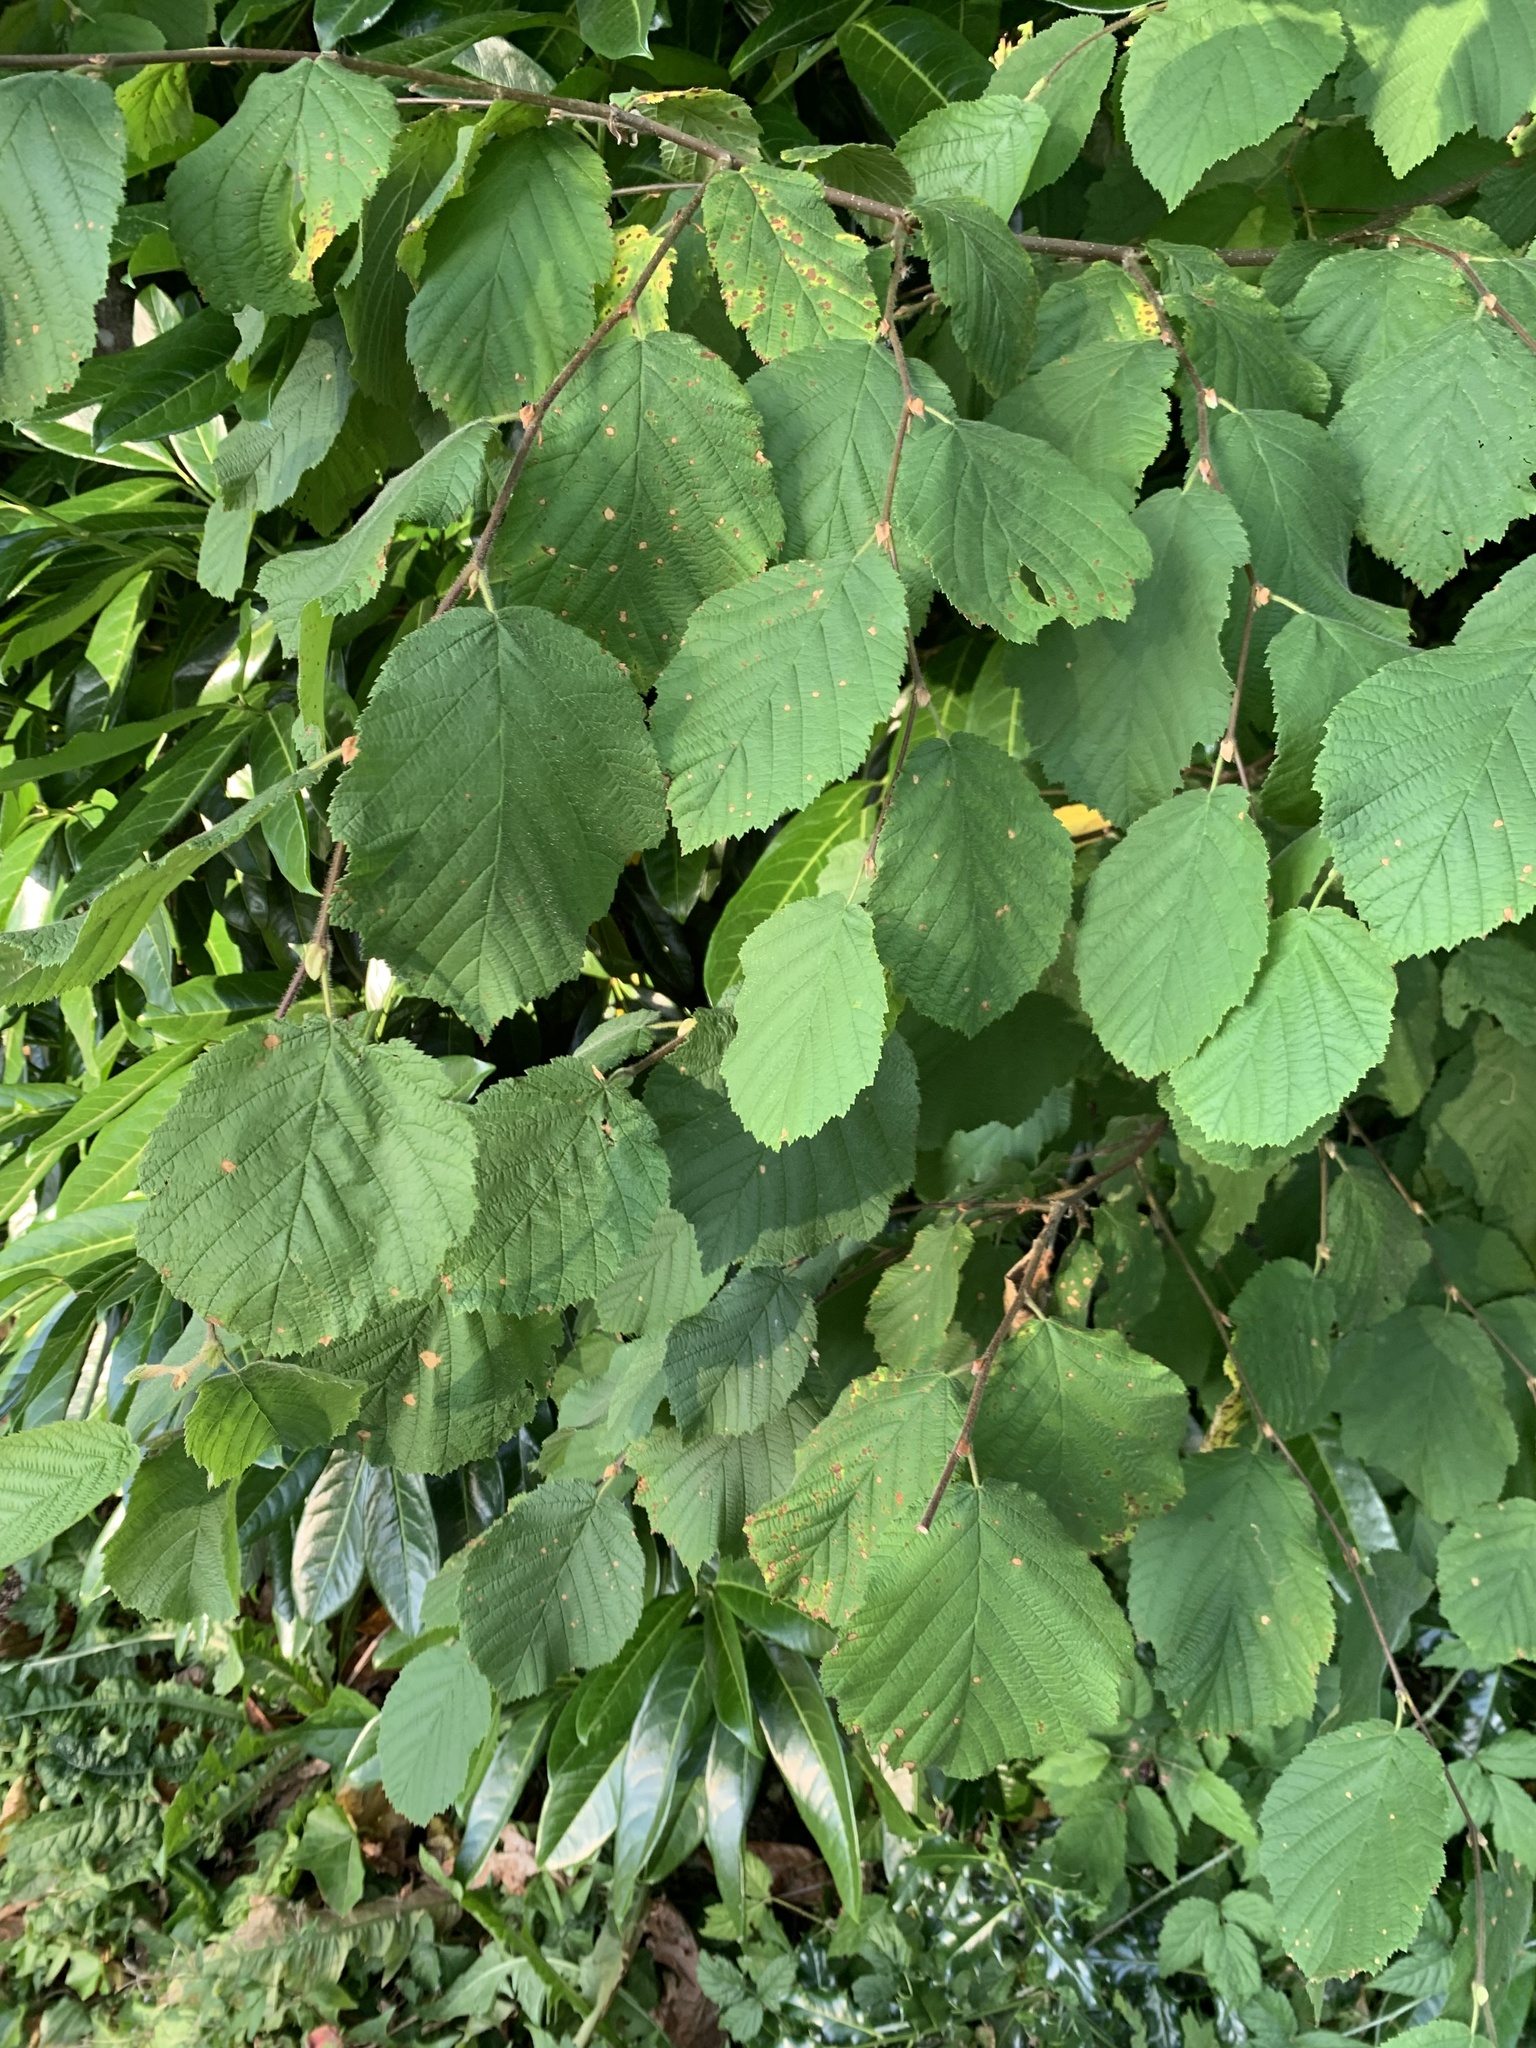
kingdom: Plantae
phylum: Tracheophyta
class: Magnoliopsida
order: Fagales
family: Betulaceae
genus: Corylus
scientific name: Corylus cornuta
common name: Beaked hazel
